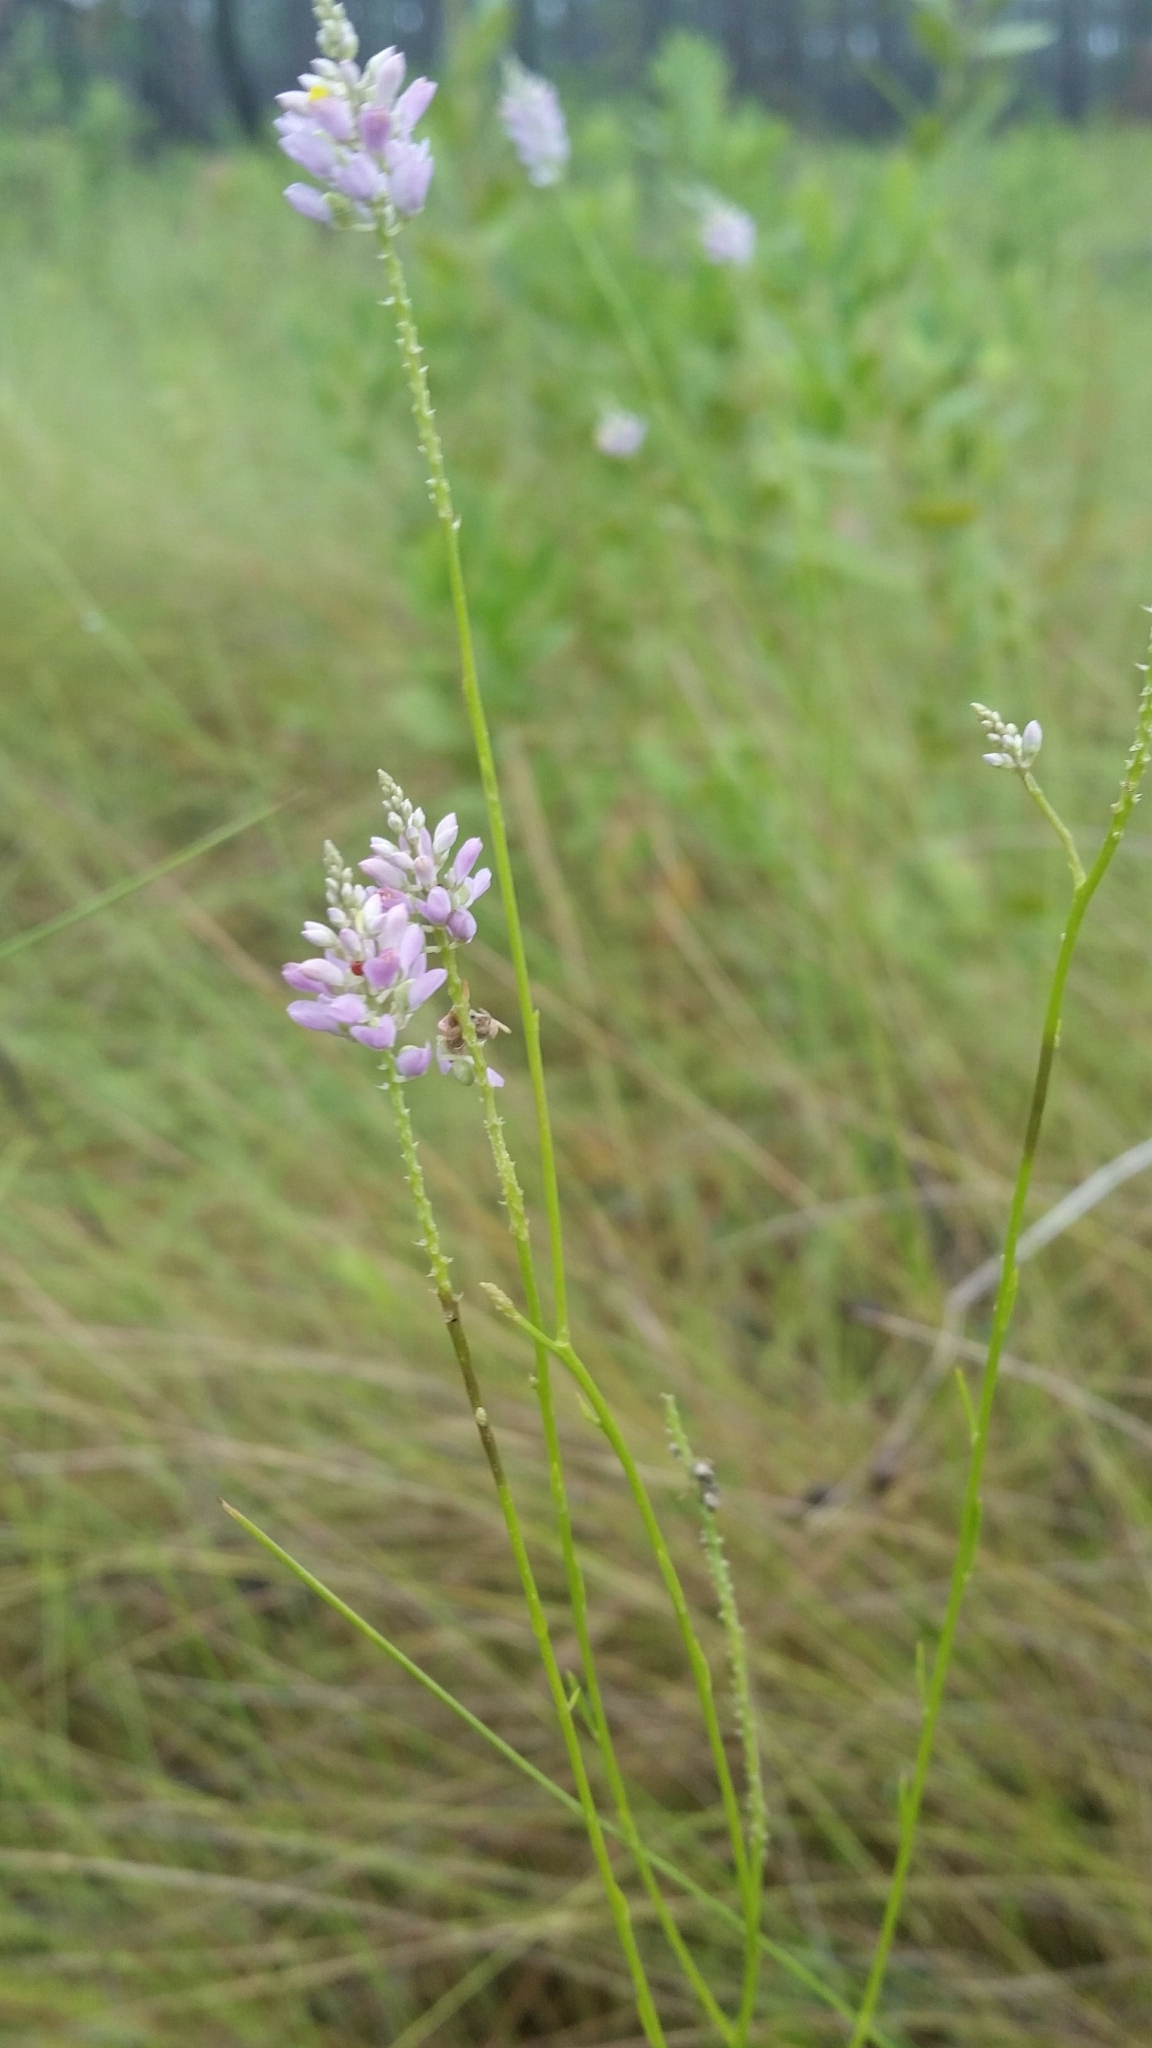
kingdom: Plantae
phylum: Tracheophyta
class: Magnoliopsida
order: Fabales
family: Polygalaceae
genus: Polygala
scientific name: Polygala chapmanii
